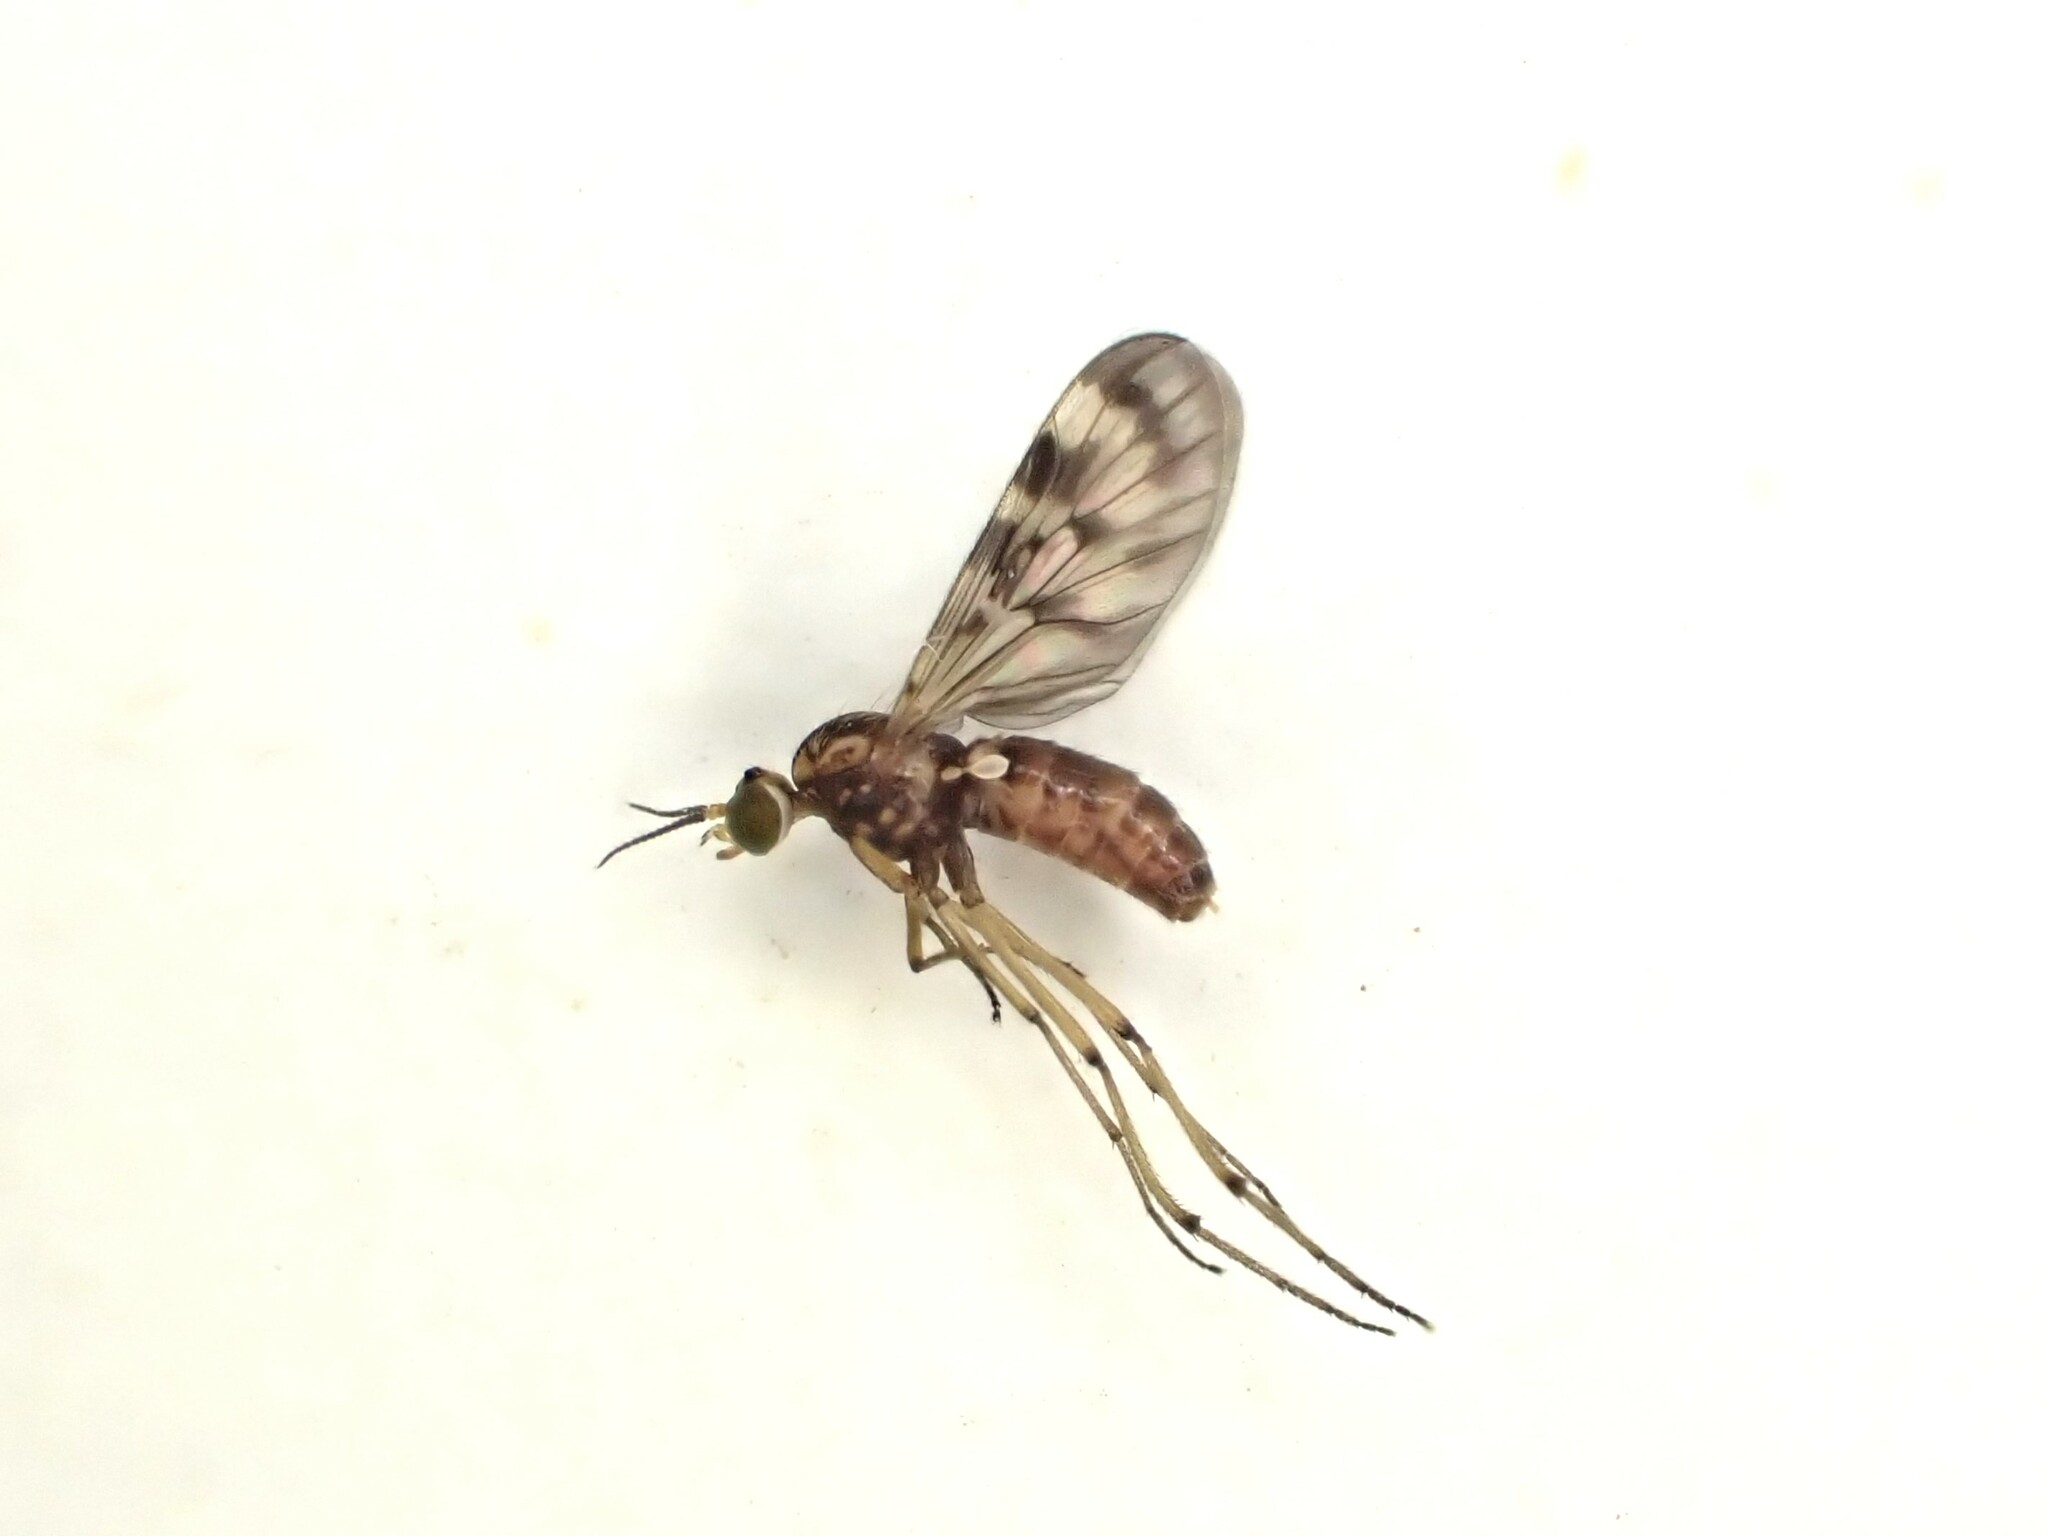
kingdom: Animalia
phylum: Arthropoda
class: Insecta
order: Diptera
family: Anisopodidae
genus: Sylvicola
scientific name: Sylvicola dubius
